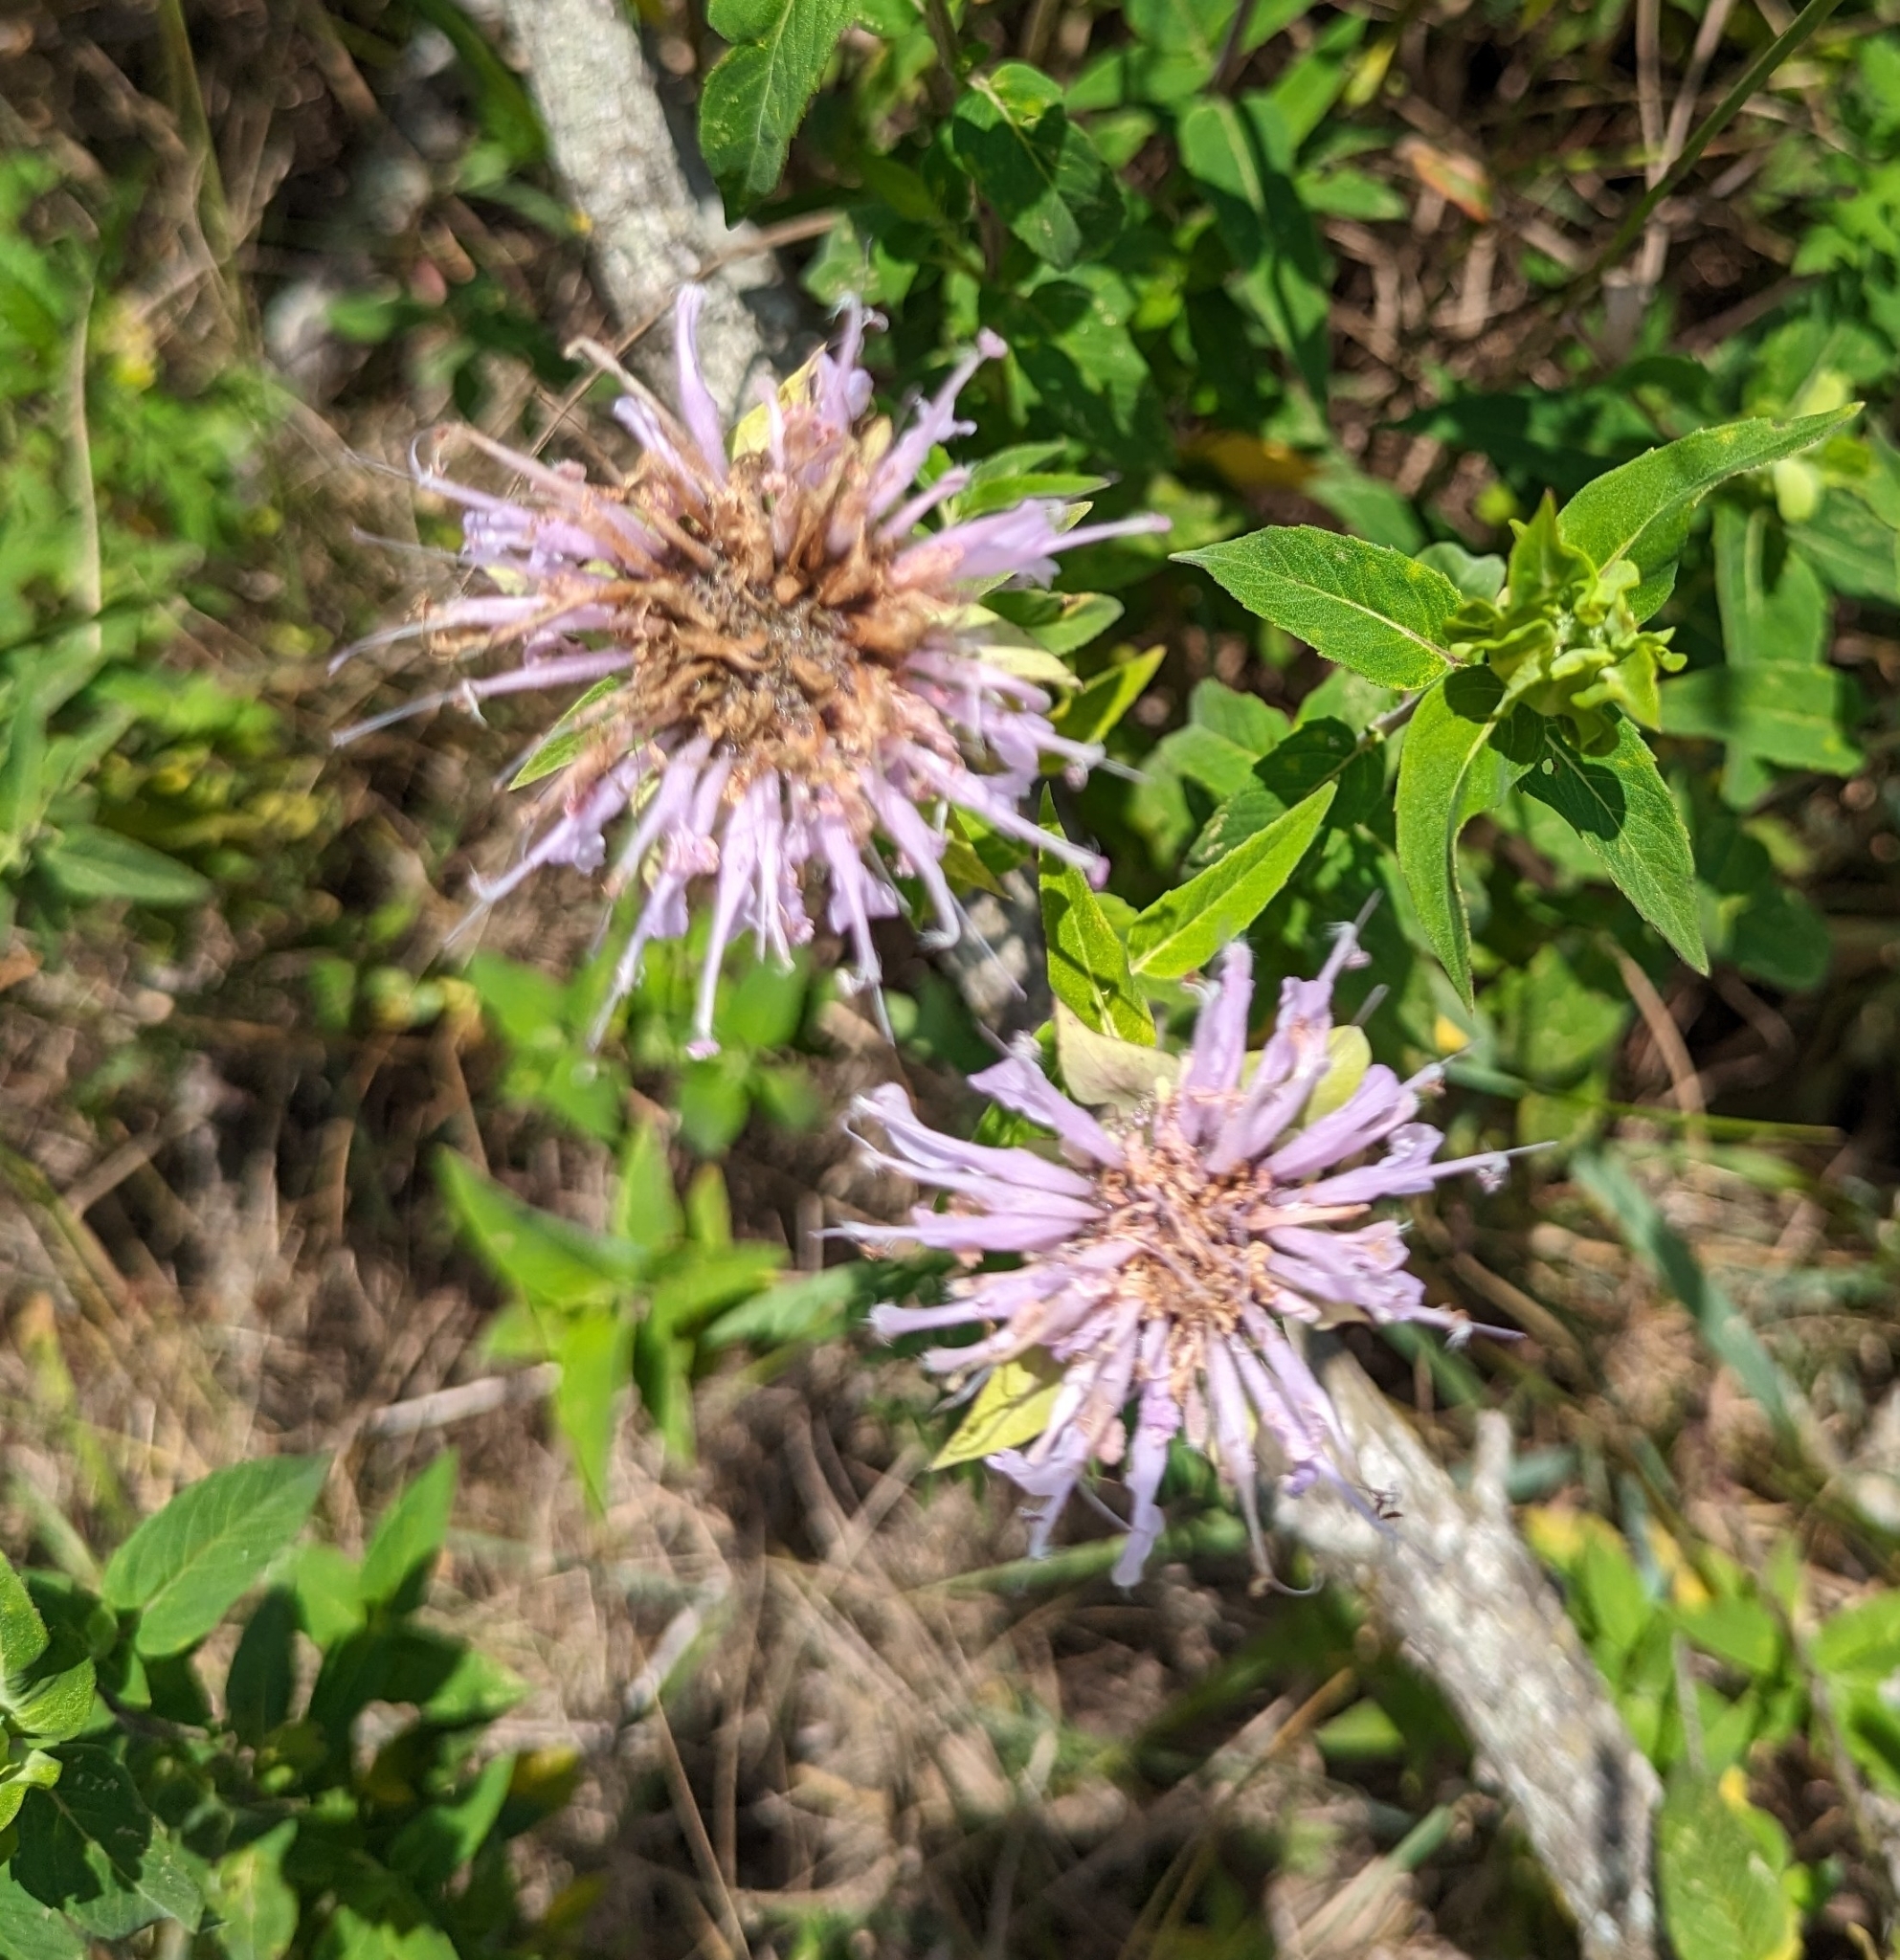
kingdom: Plantae
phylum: Tracheophyta
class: Magnoliopsida
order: Lamiales
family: Lamiaceae
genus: Monarda
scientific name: Monarda fistulosa
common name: Purple beebalm
